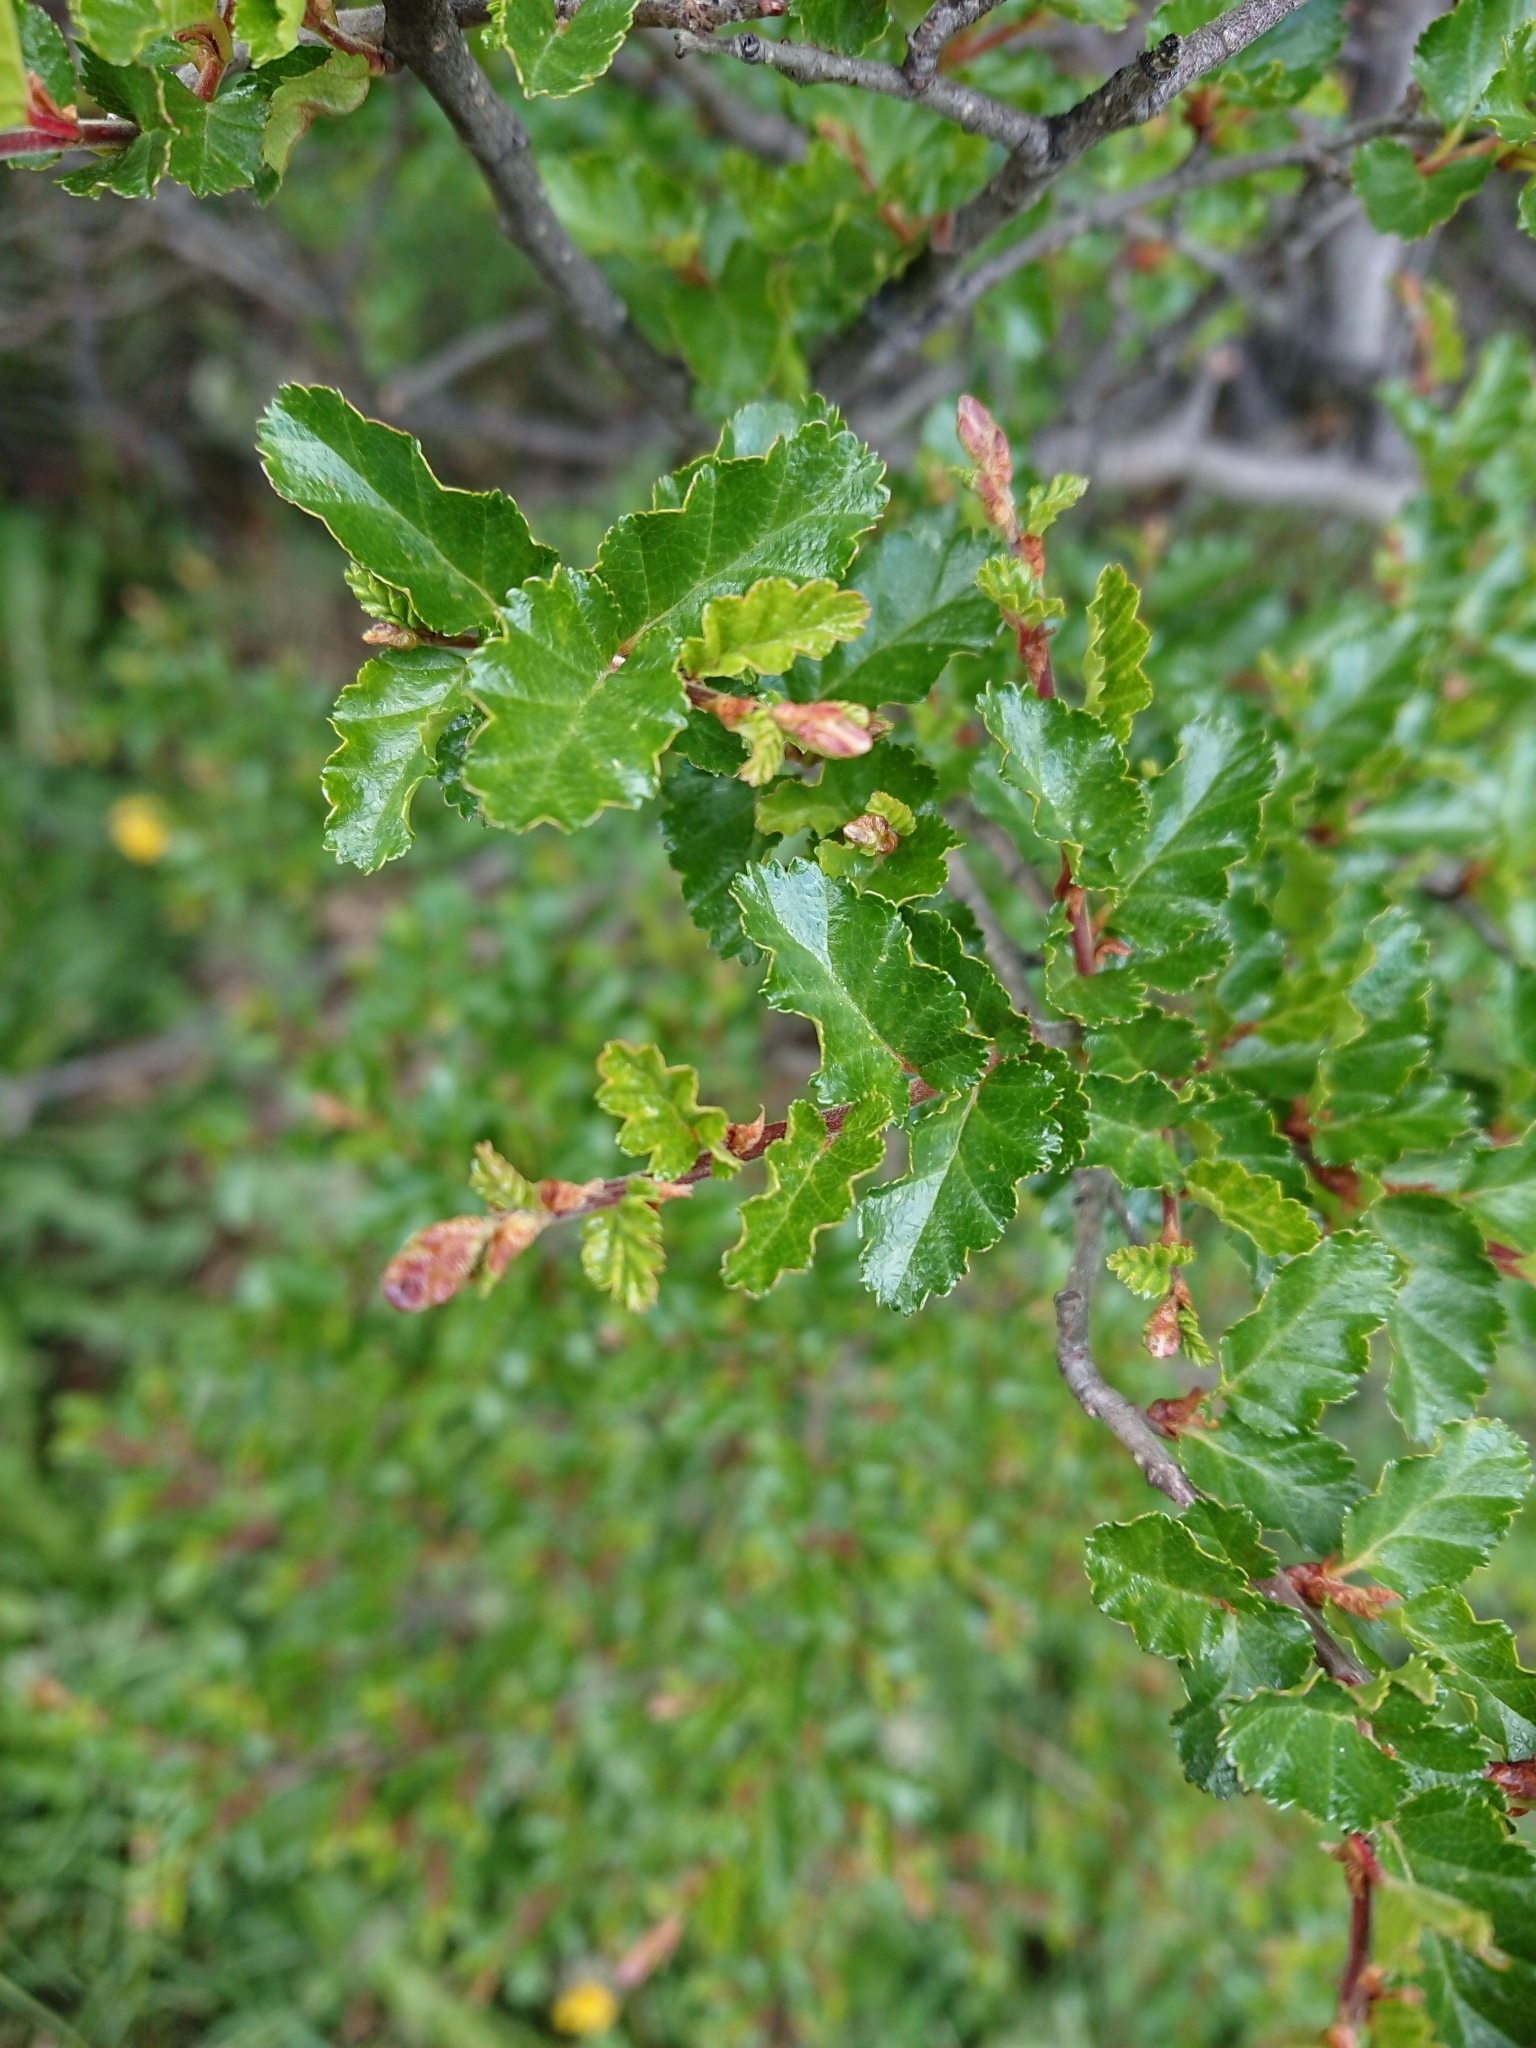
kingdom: Plantae
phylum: Tracheophyta
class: Magnoliopsida
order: Fagales
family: Nothofagaceae
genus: Nothofagus
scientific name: Nothofagus antarctica
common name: Antarctic beech
